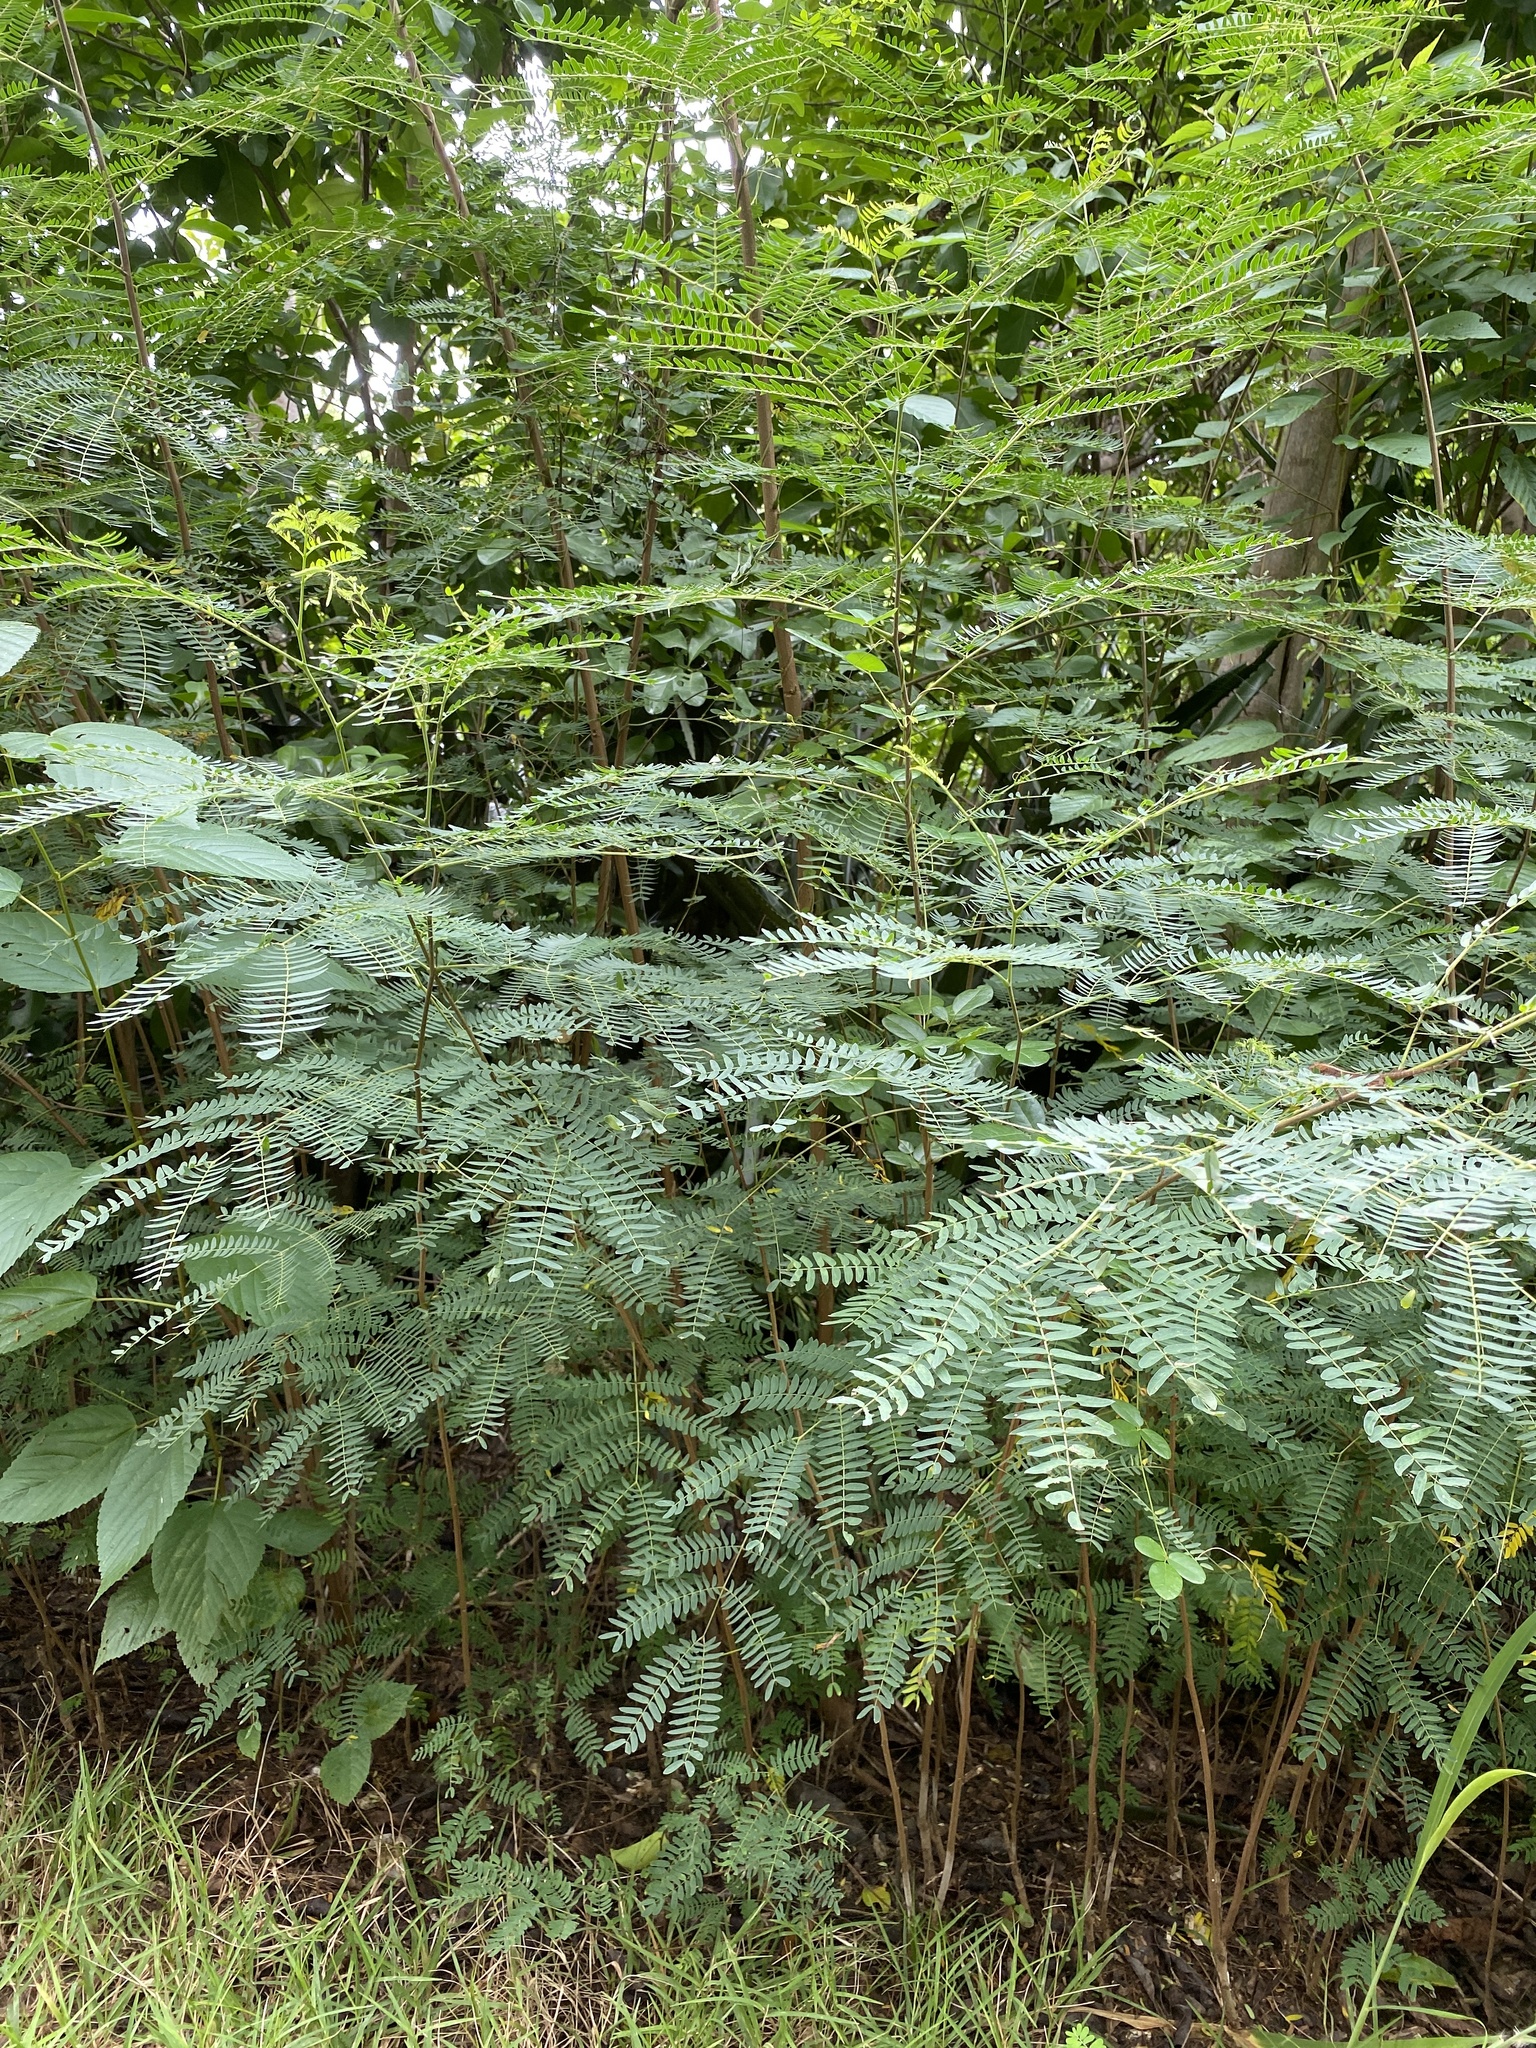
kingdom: Plantae
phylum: Tracheophyta
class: Magnoliopsida
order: Fabales
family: Fabaceae
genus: Leucaena
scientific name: Leucaena leucocephala
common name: White leadtree
